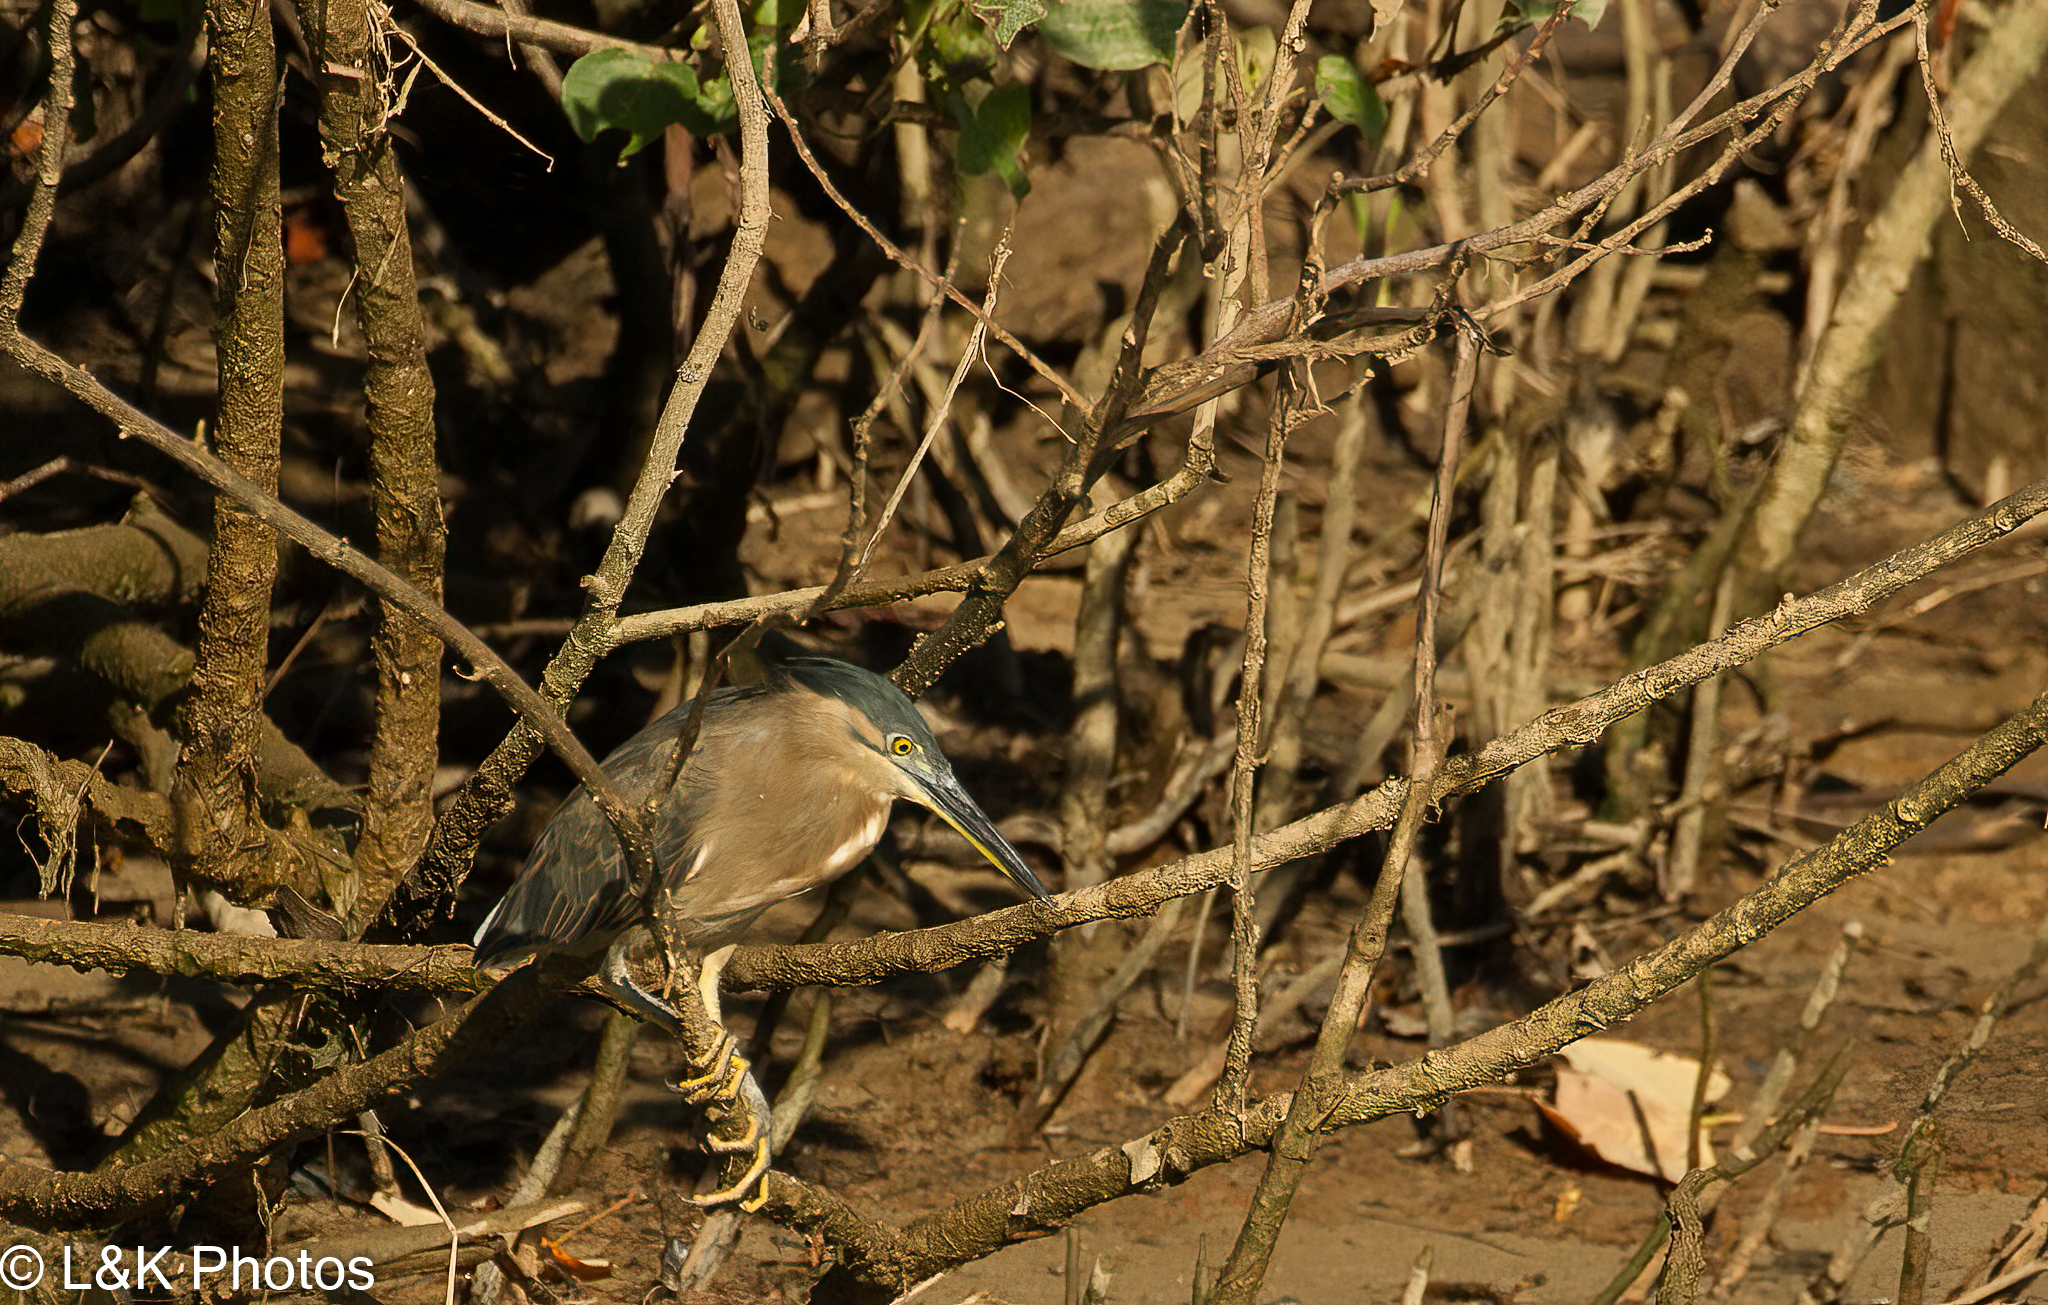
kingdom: Animalia
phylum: Chordata
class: Aves
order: Pelecaniformes
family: Ardeidae
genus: Butorides
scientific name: Butorides striata
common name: Striated heron
